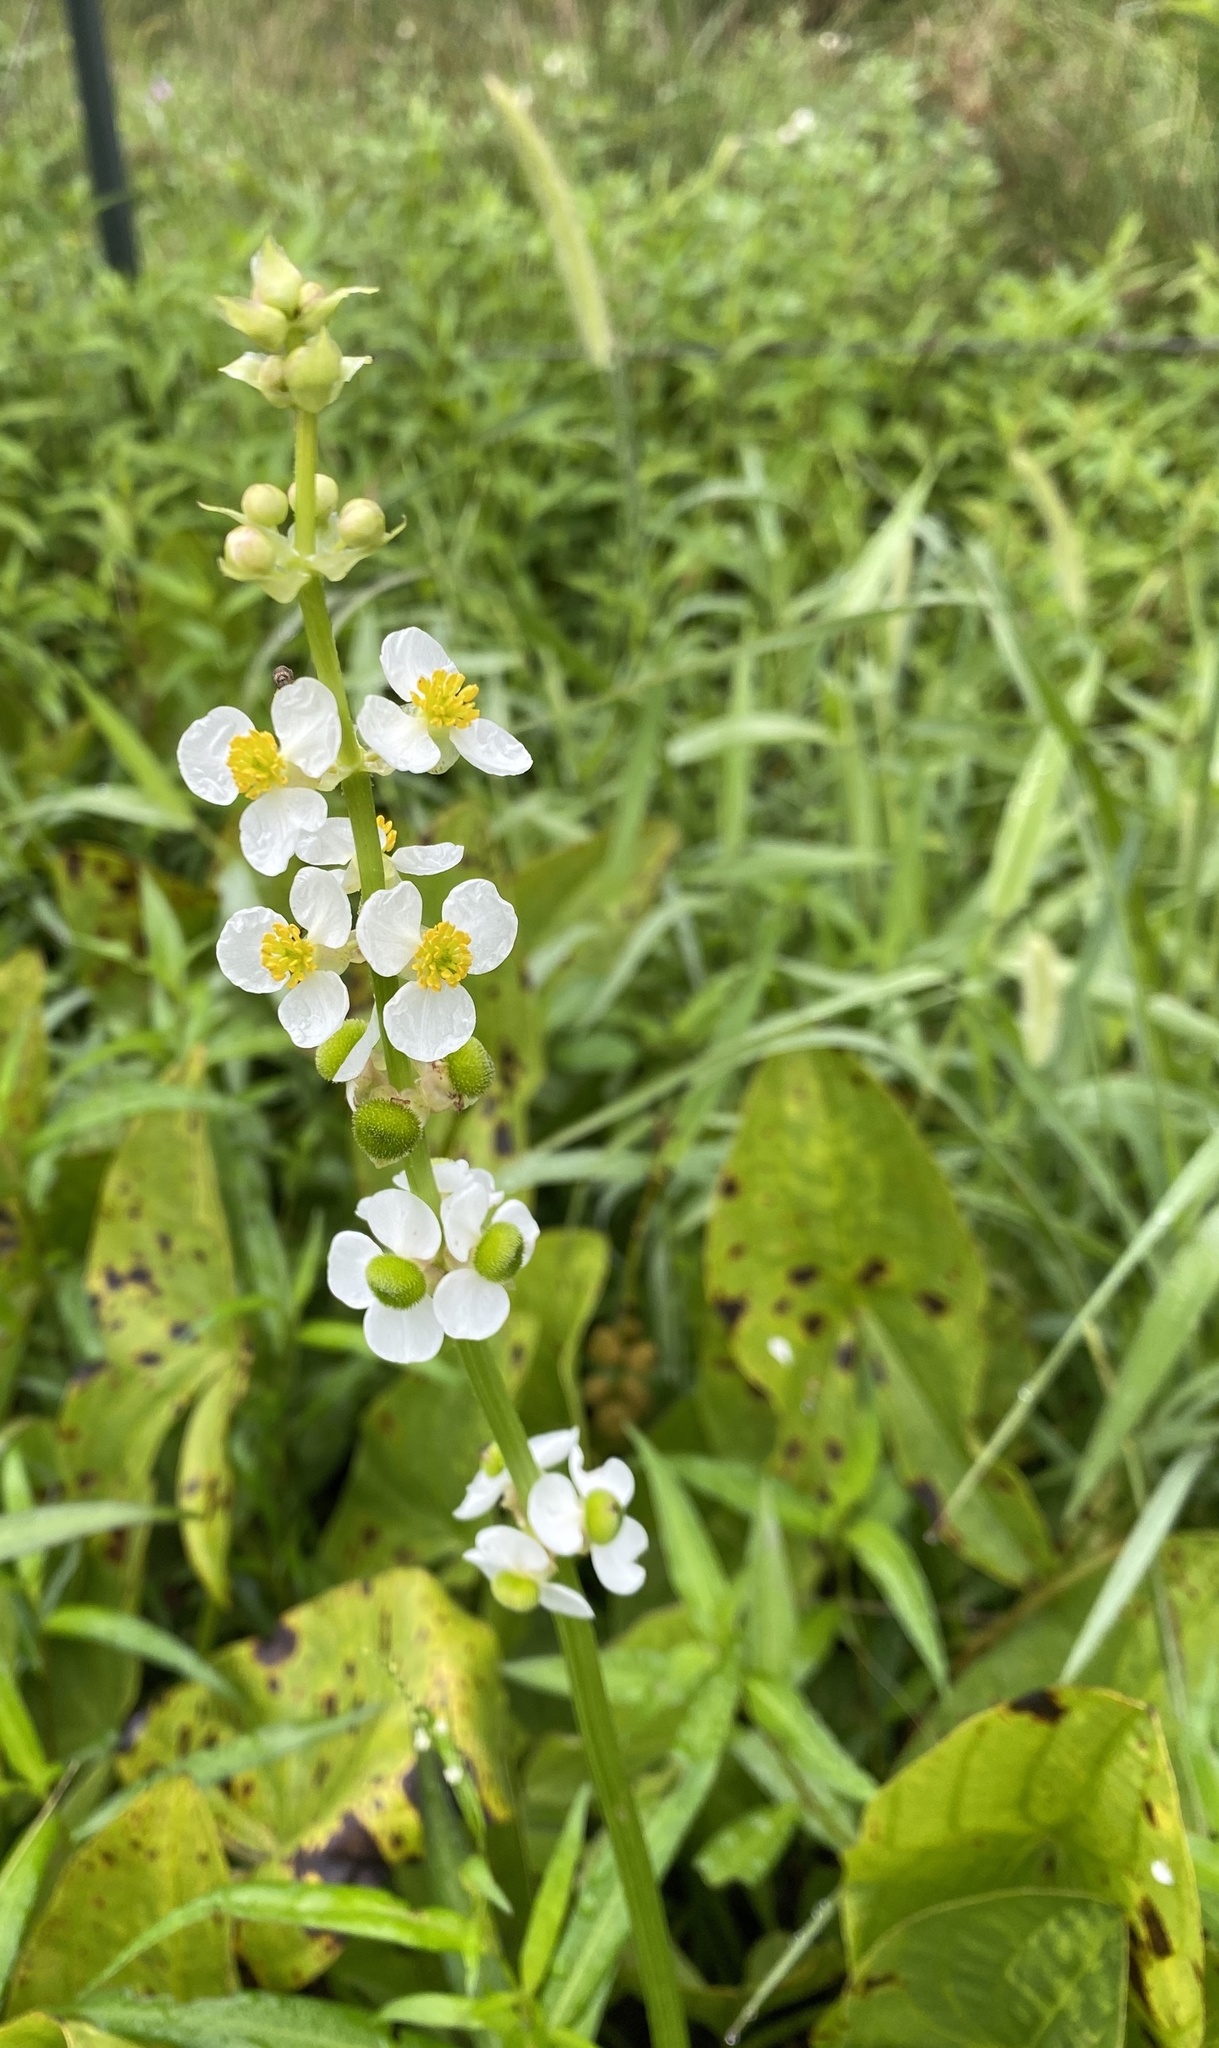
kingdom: Plantae
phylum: Tracheophyta
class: Liliopsida
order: Alismatales
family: Alismataceae
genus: Sagittaria
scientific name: Sagittaria australis
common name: Appalachian arrowhead
